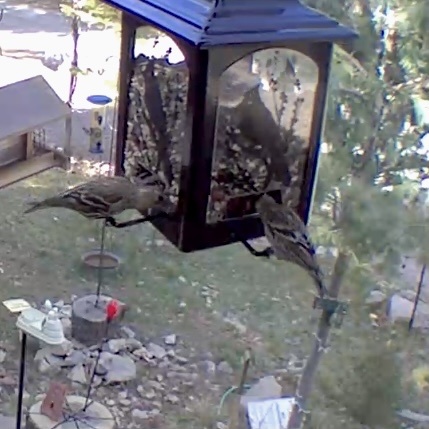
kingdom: Animalia
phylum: Chordata
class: Aves
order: Passeriformes
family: Fringillidae
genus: Spinus
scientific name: Spinus pinus
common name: Pine siskin
